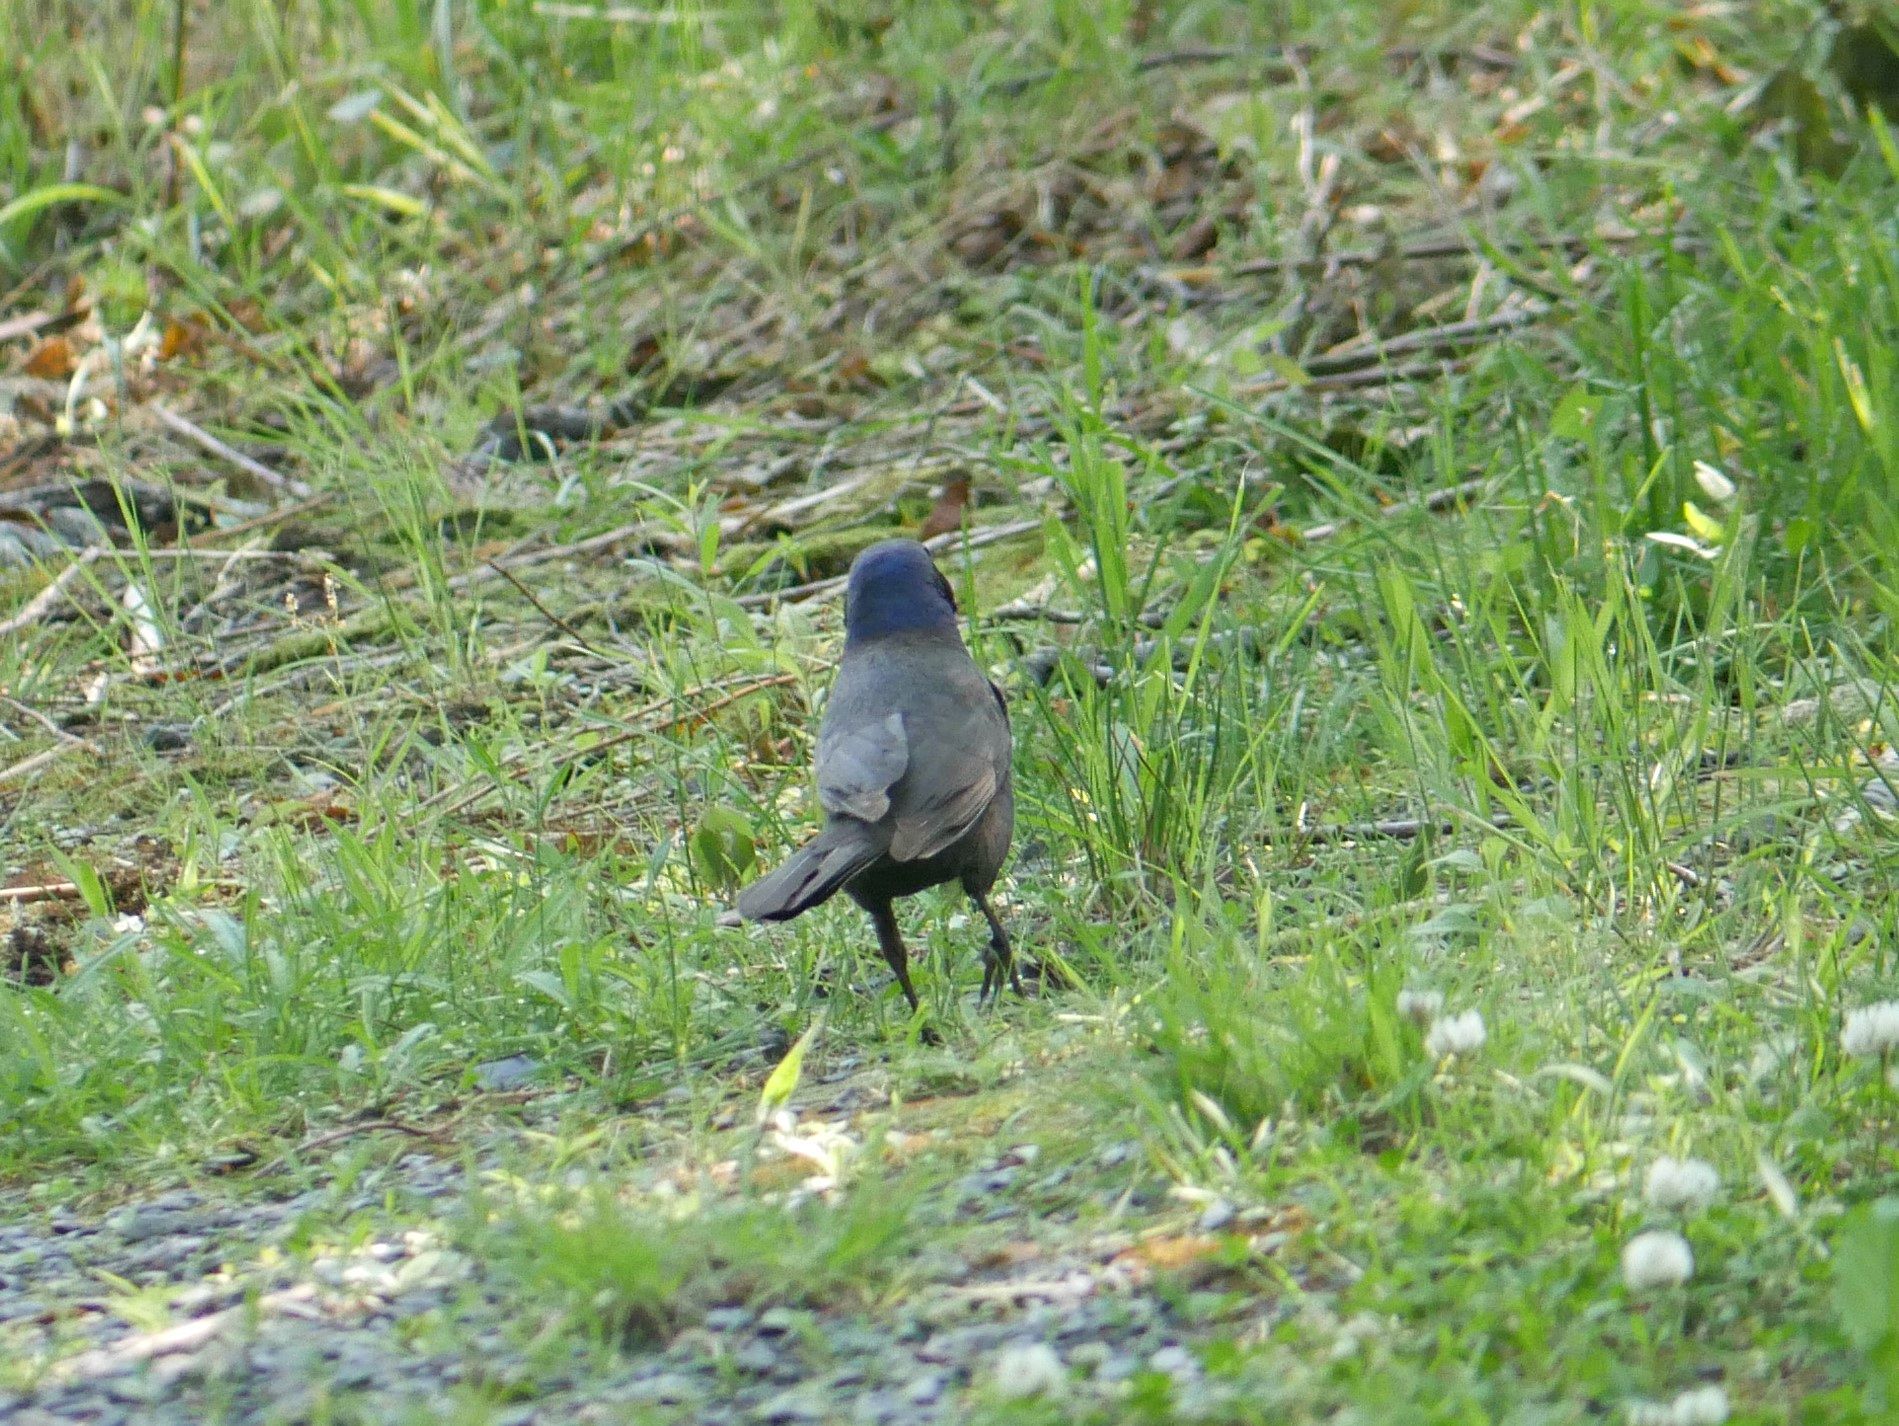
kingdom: Animalia
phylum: Chordata
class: Aves
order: Passeriformes
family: Icteridae
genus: Quiscalus
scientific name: Quiscalus quiscula
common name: Common grackle
